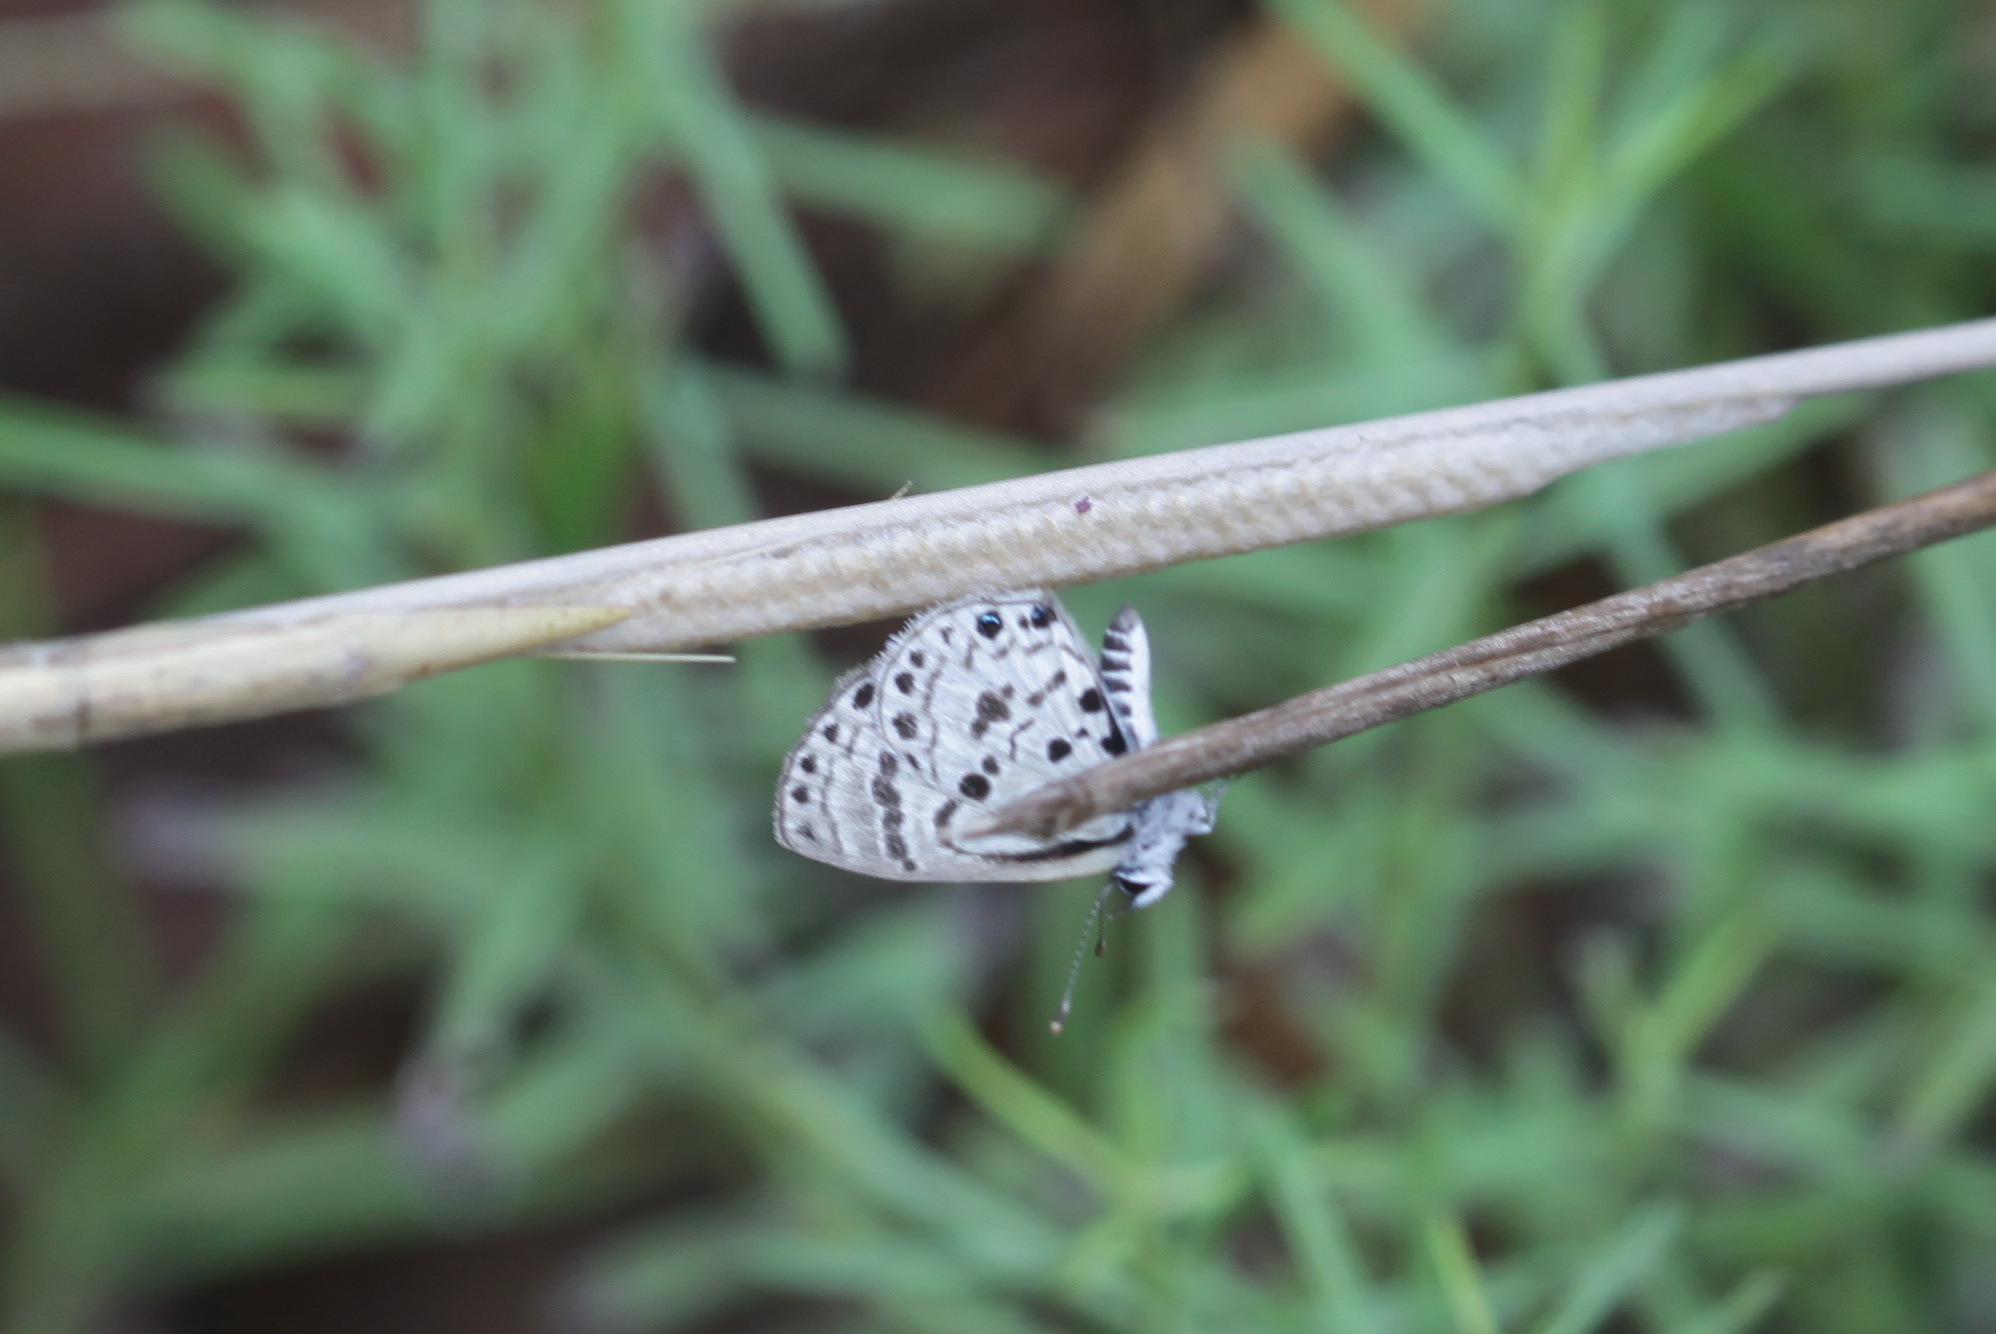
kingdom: Animalia
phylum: Arthropoda
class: Insecta
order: Lepidoptera
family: Lycaenidae
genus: Azanus
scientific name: Azanus moriqua
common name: Thorn-tree babul blue
